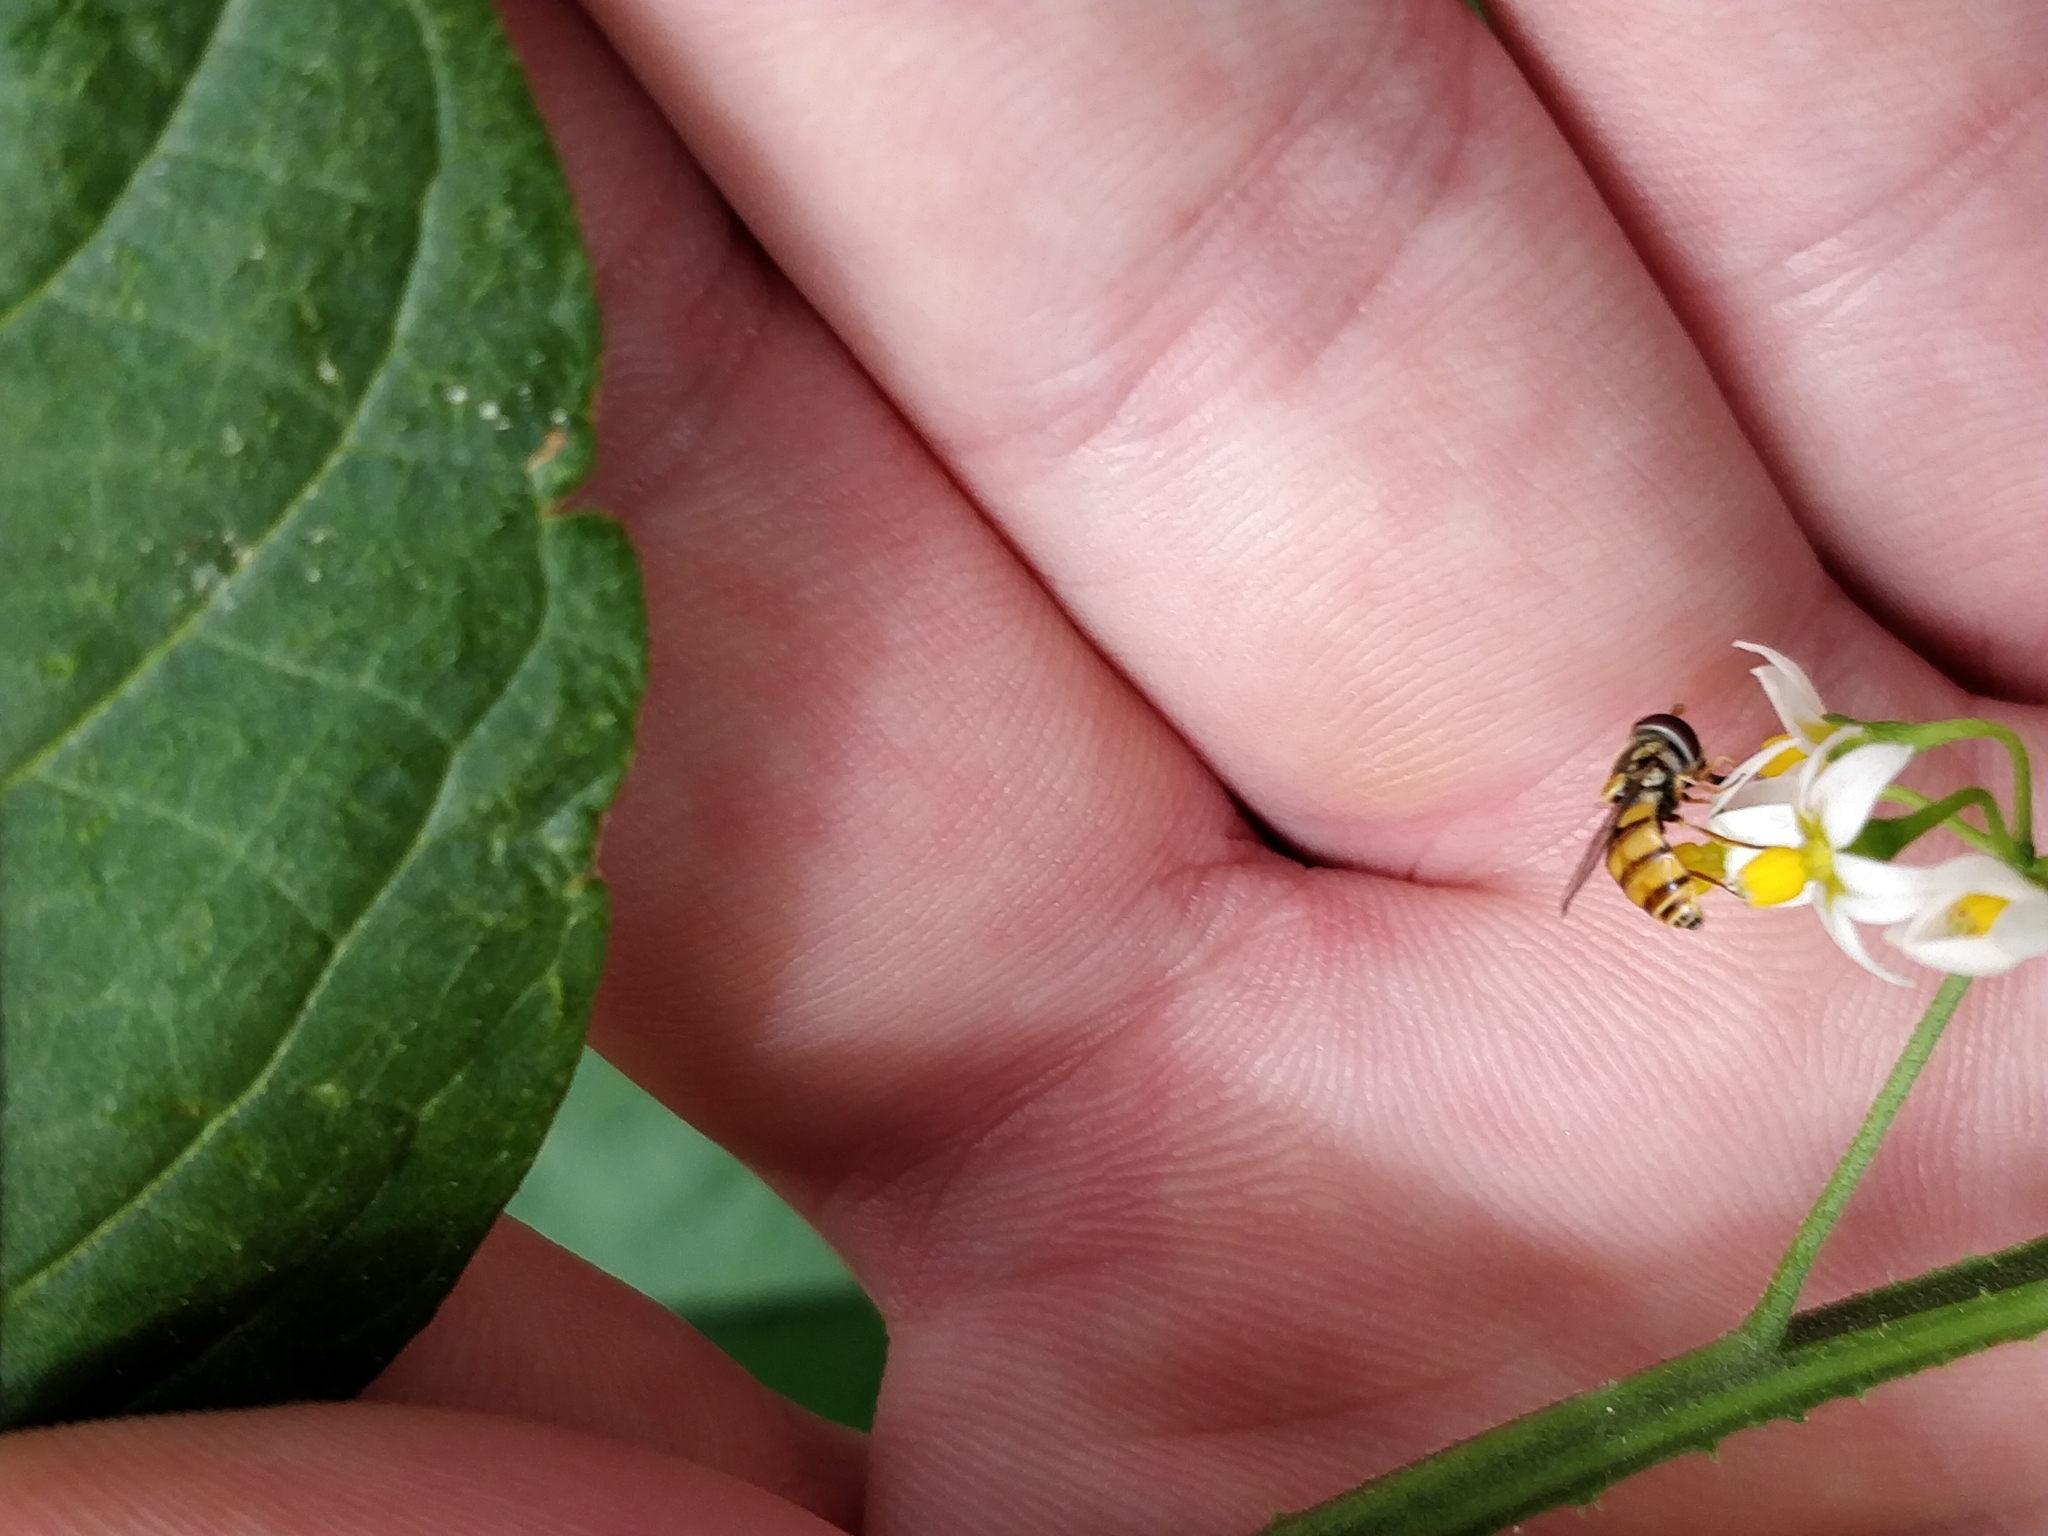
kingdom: Animalia
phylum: Arthropoda
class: Insecta
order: Diptera
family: Syrphidae
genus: Simosyrphus
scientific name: Simosyrphus grandicornis
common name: Hoverfly
